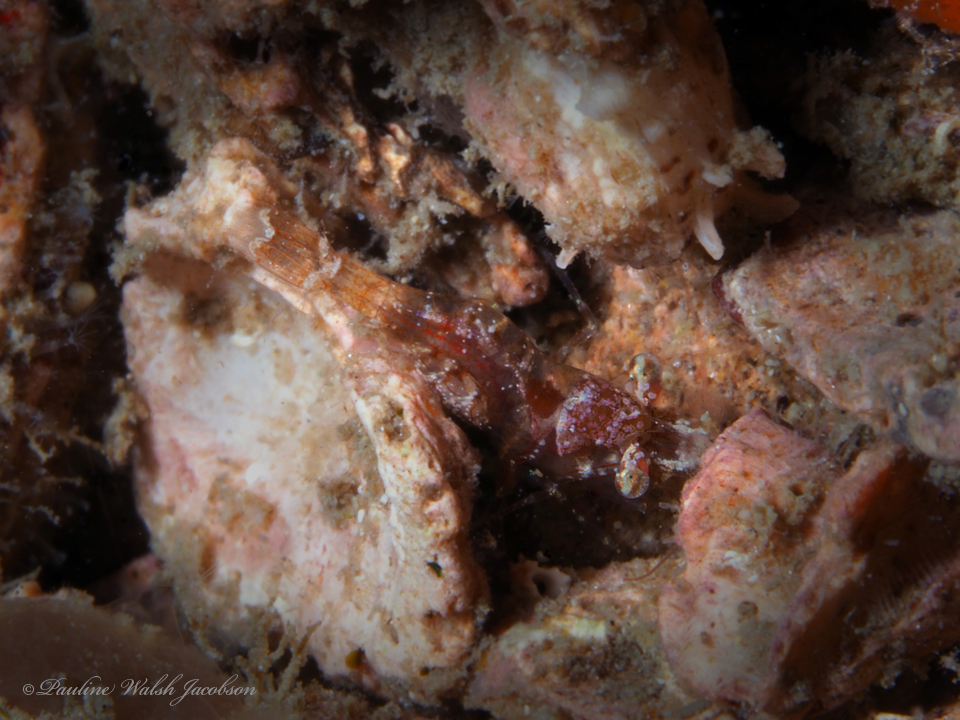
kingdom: Animalia
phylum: Arthropoda
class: Malacostraca
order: Decapoda
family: Thoridae
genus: Thor
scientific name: Thor manningi
